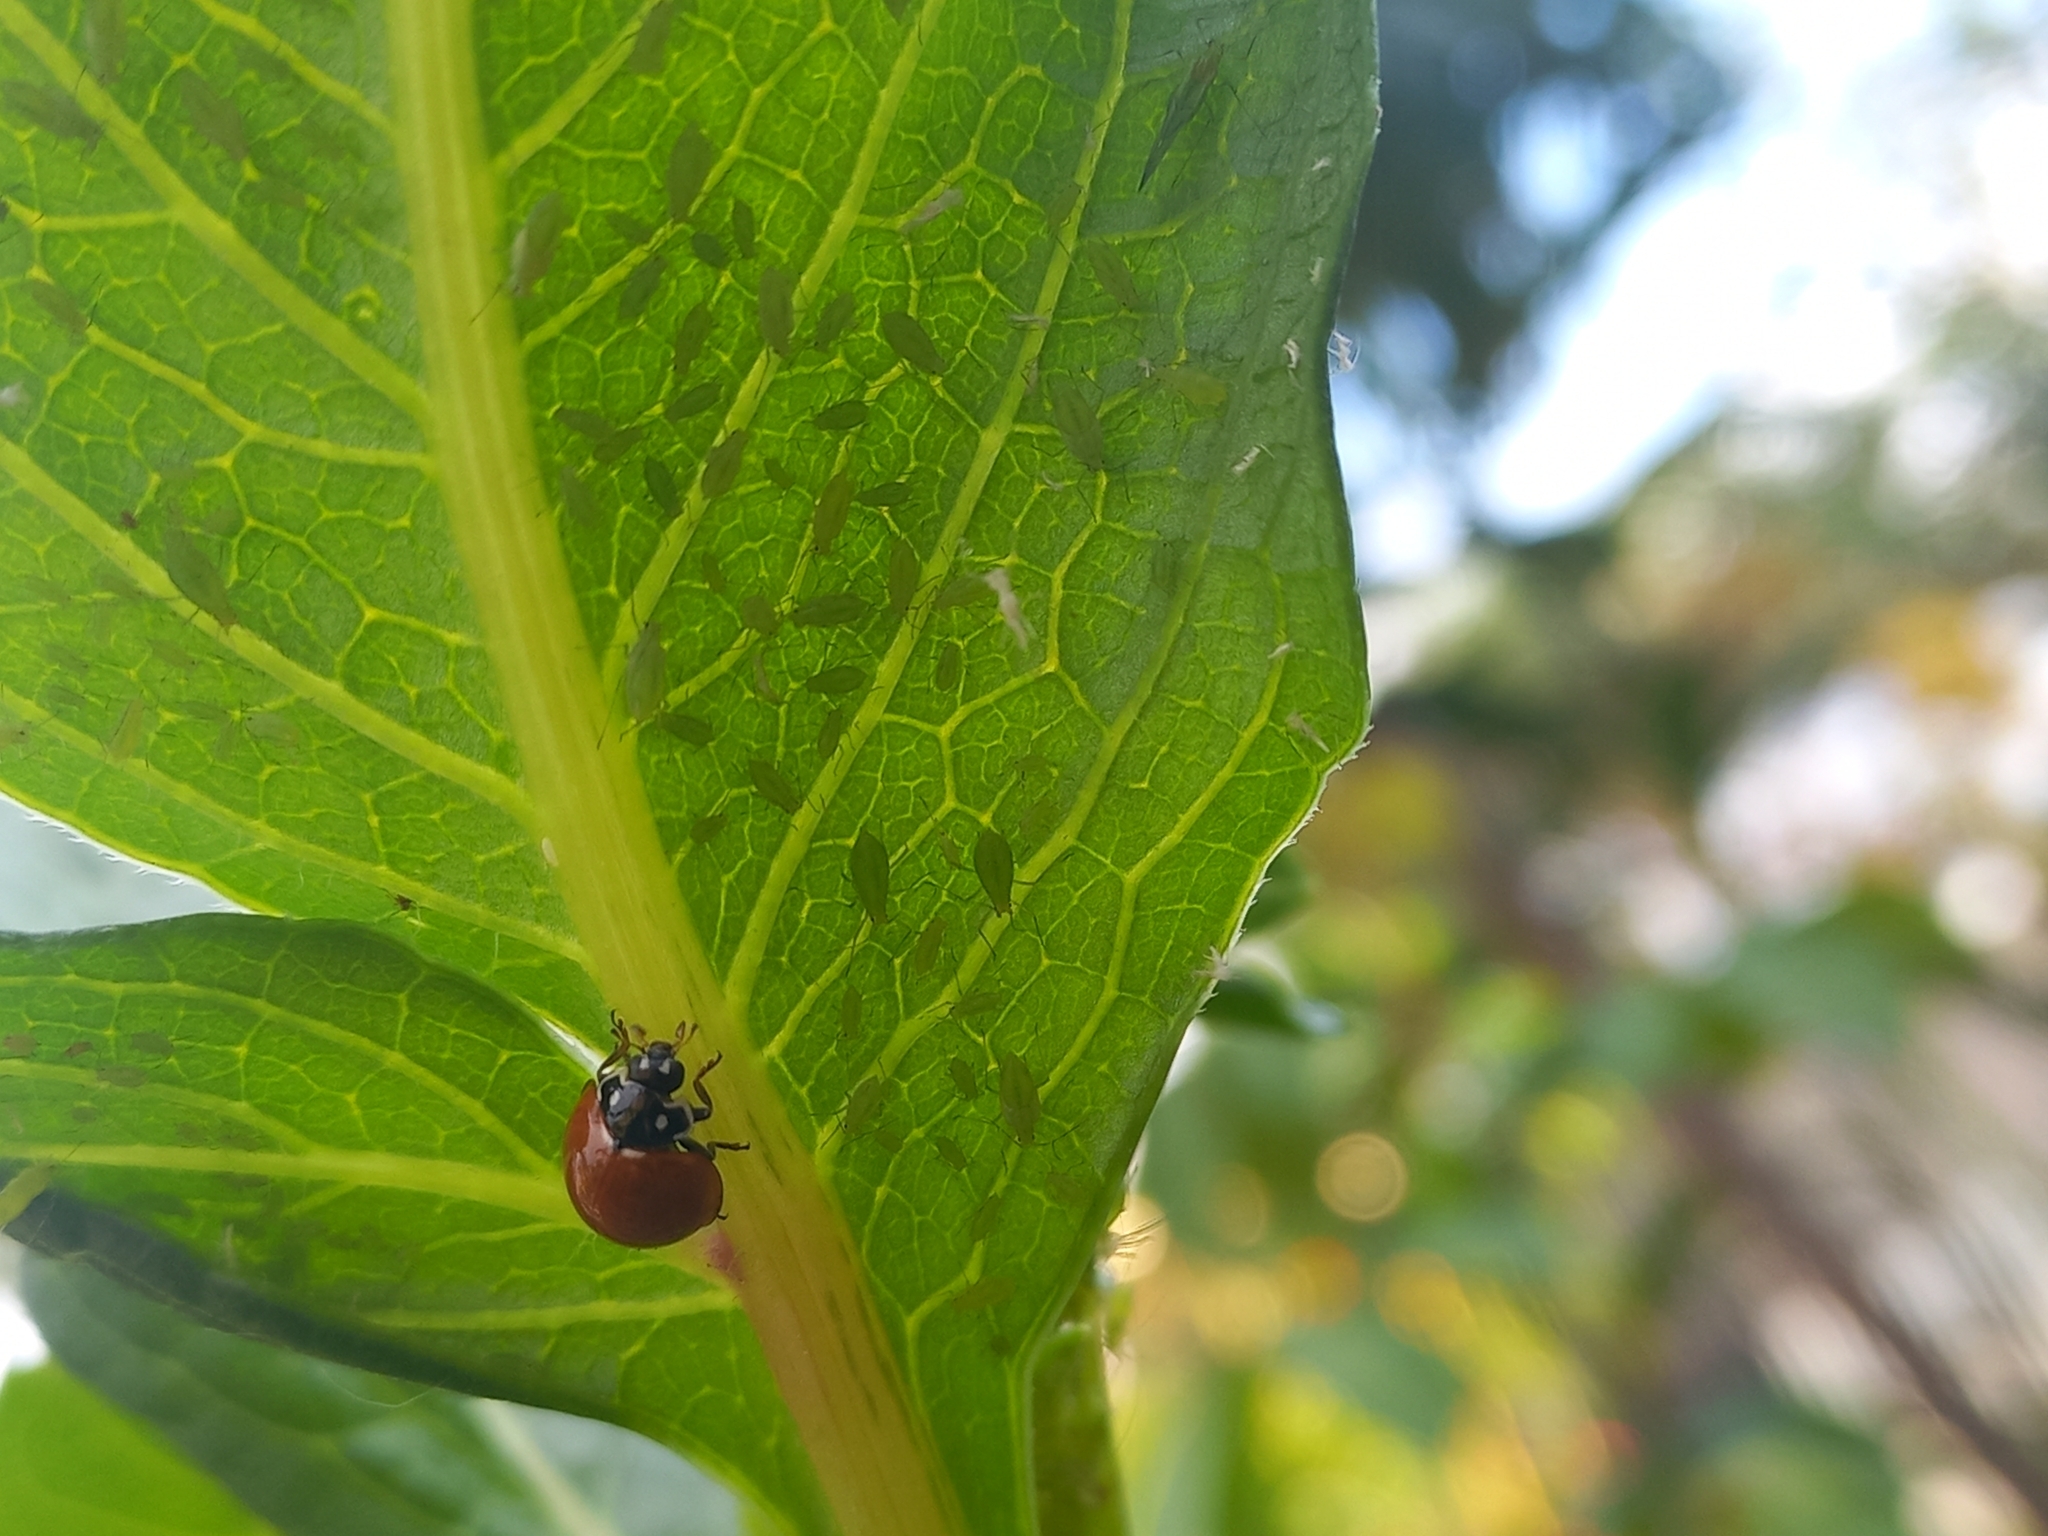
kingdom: Animalia
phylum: Arthropoda
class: Insecta
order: Coleoptera
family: Coccinellidae
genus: Cycloneda
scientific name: Cycloneda sanguinea
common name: Ladybird beetle
